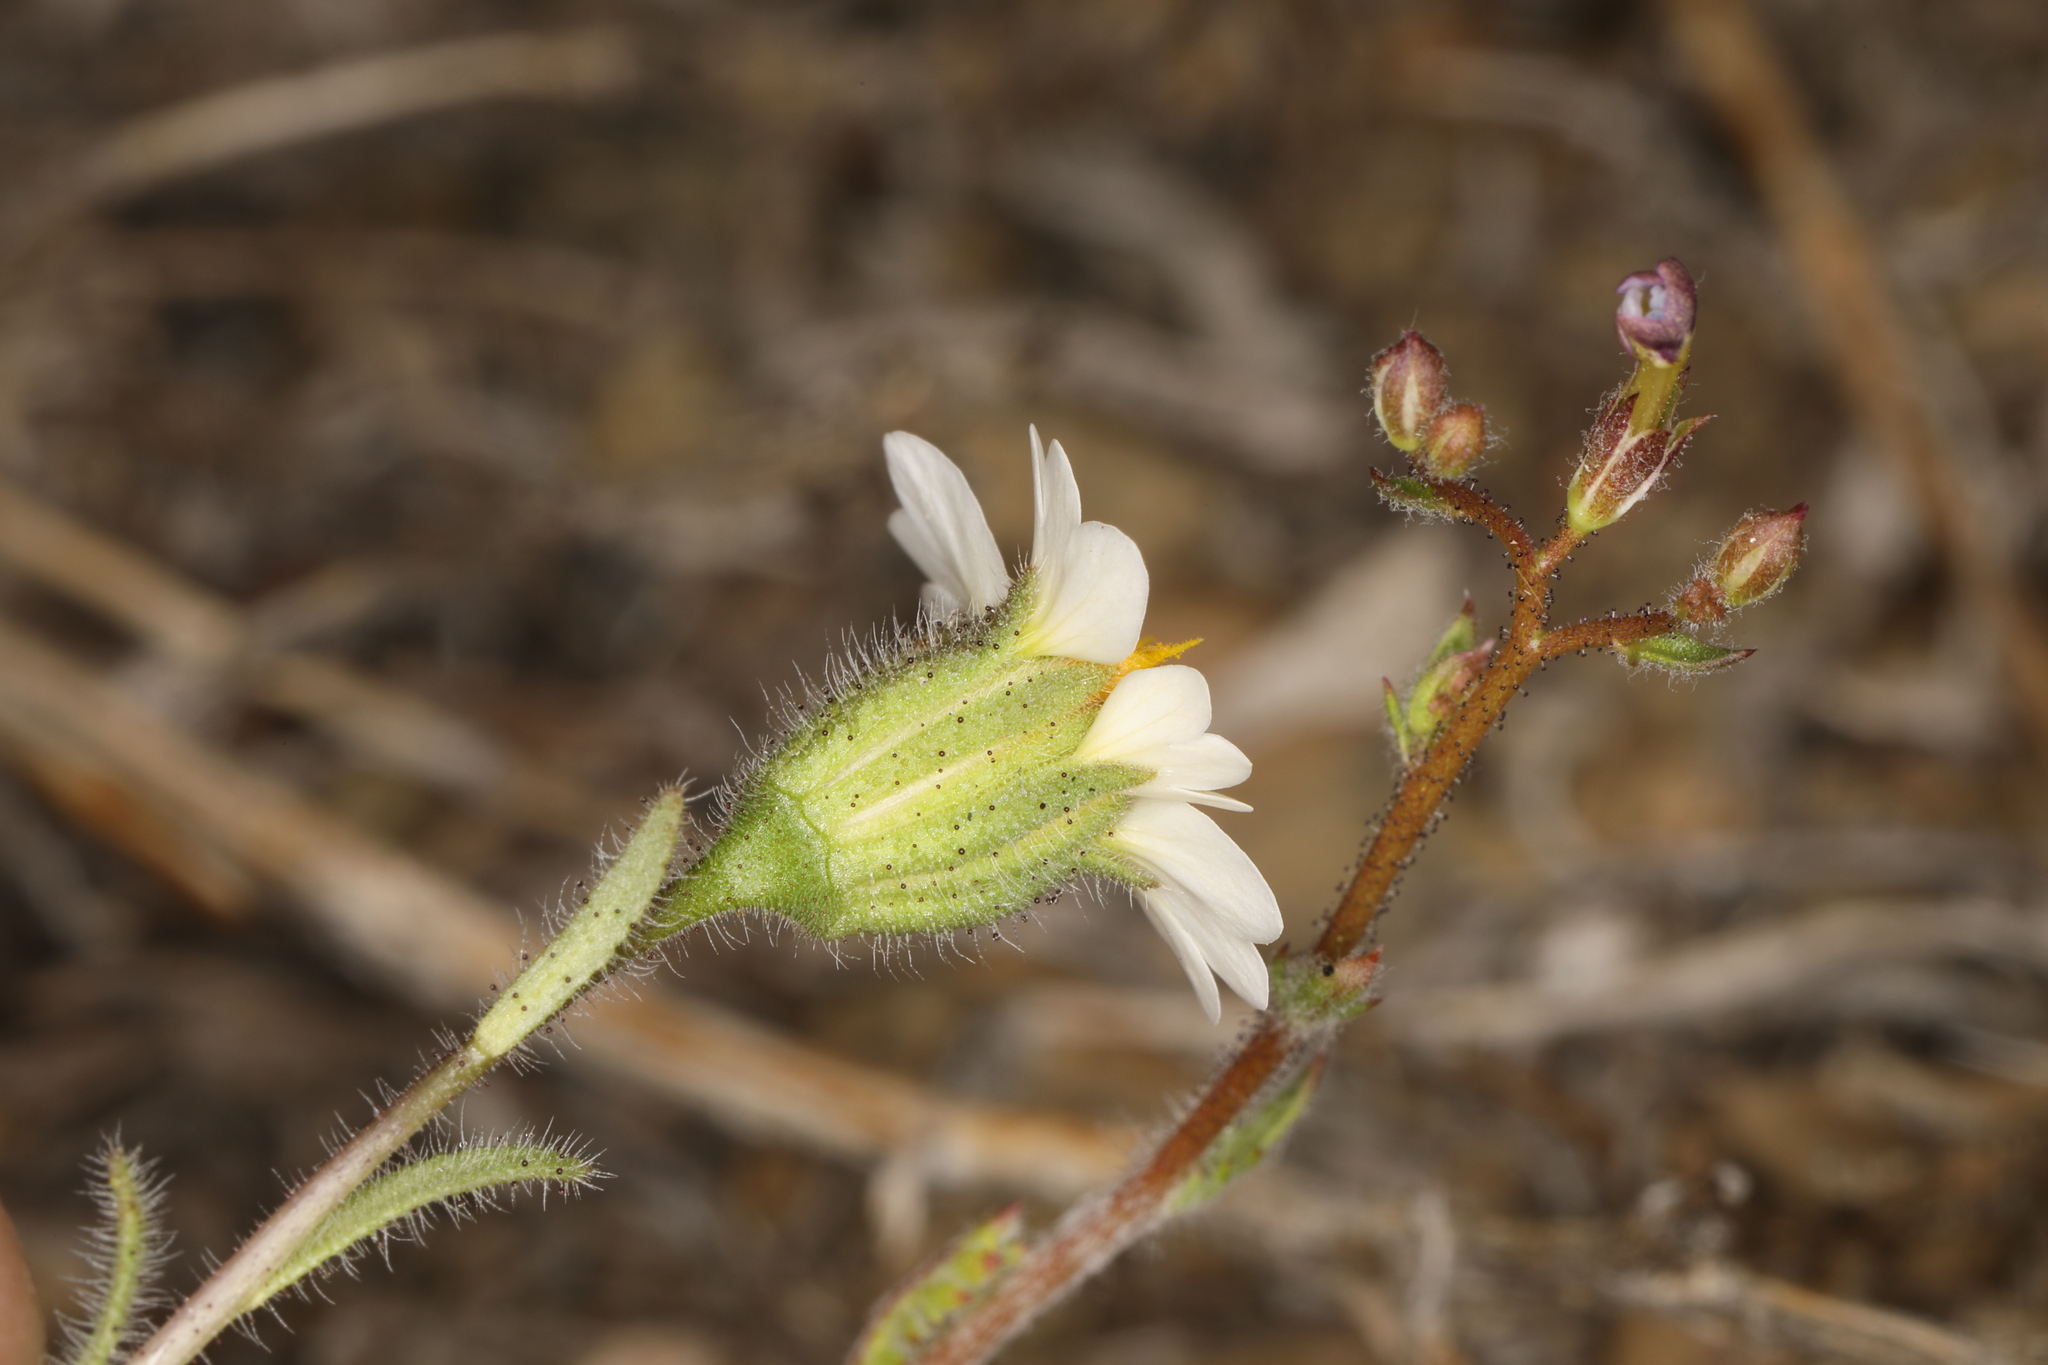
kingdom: Plantae
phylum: Tracheophyta
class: Magnoliopsida
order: Asterales
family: Asteraceae
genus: Layia
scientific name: Layia glandulosa
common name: White layia
